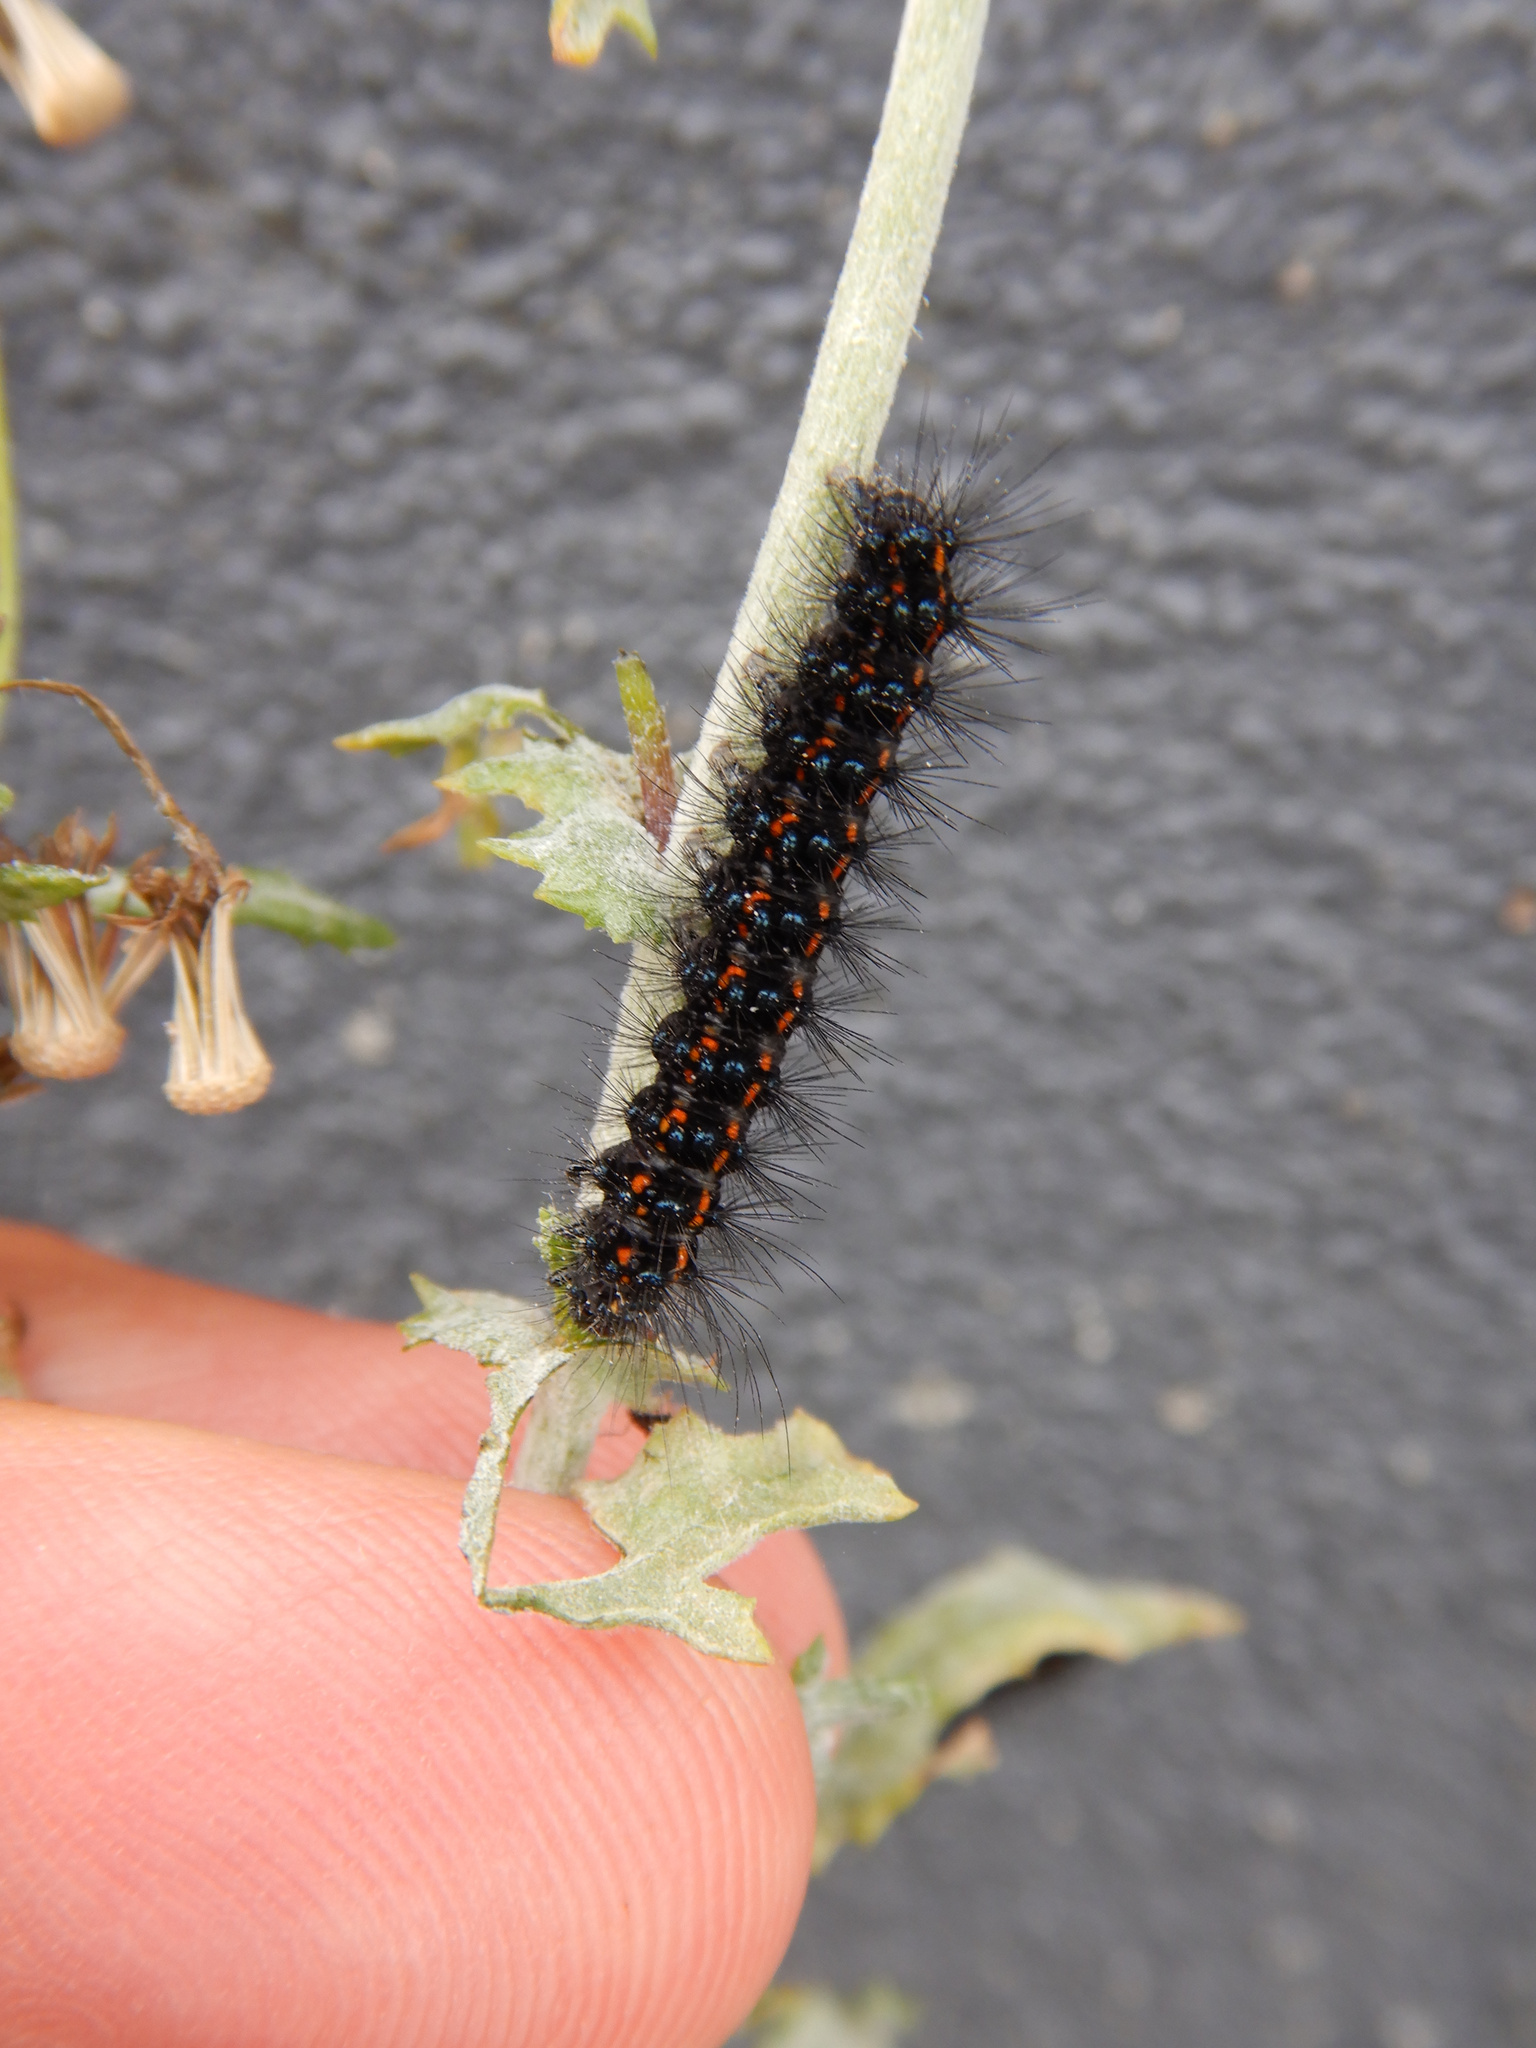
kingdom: Animalia
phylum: Arthropoda
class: Insecta
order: Lepidoptera
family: Erebidae
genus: Nyctemera
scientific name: Nyctemera annulatum
